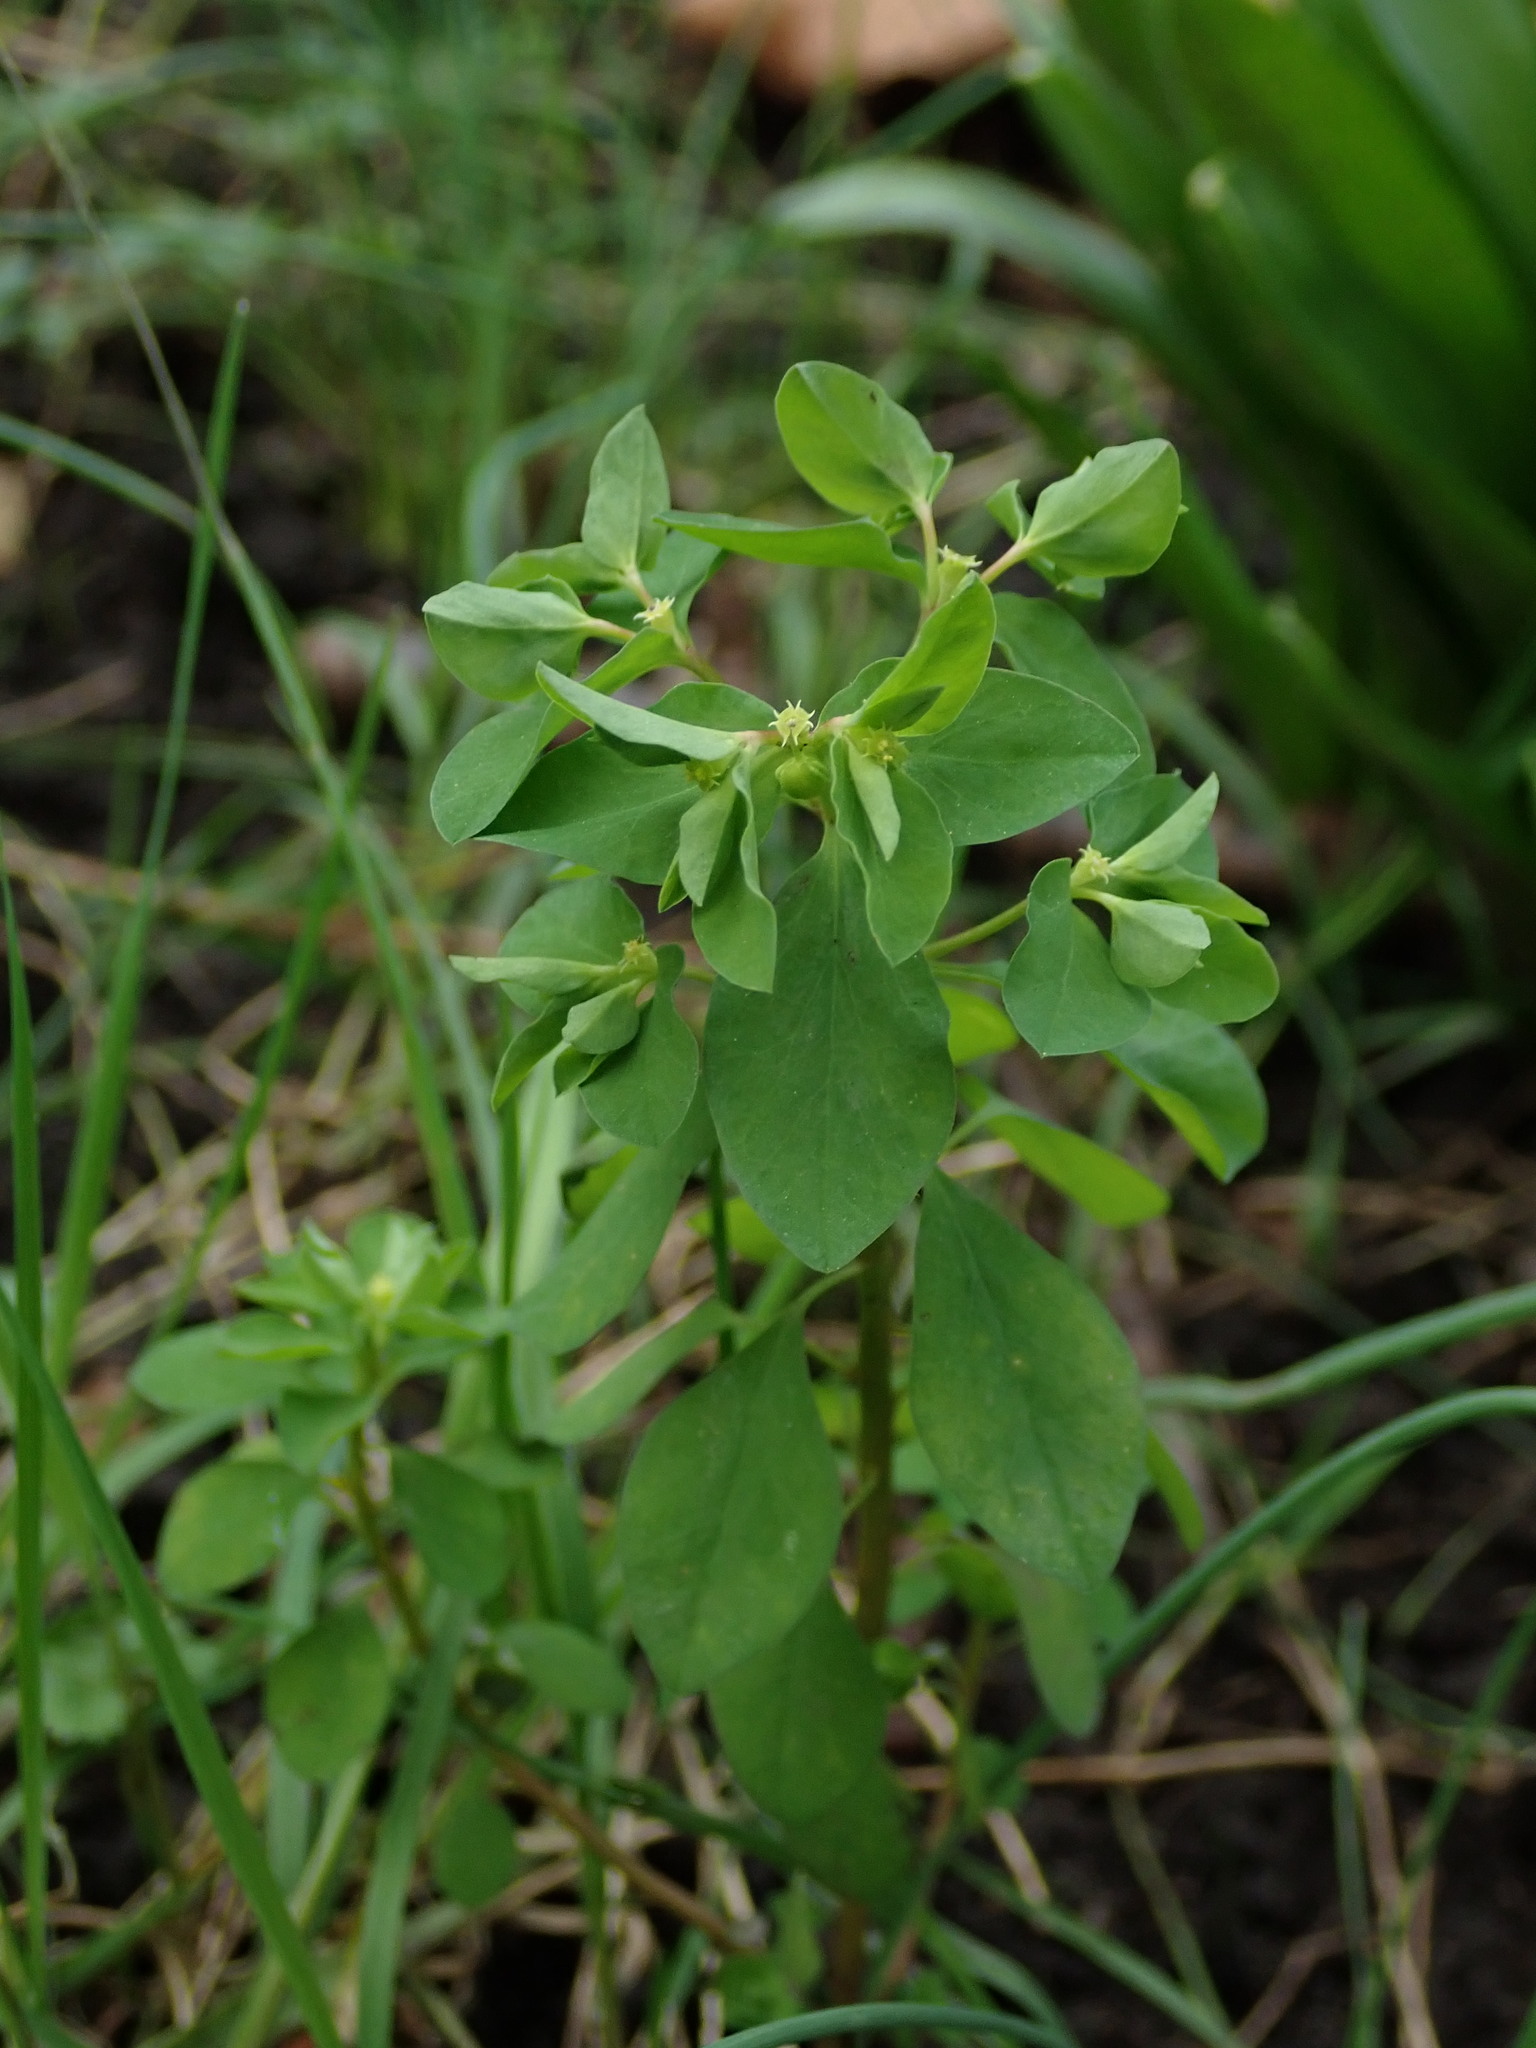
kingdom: Plantae
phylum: Tracheophyta
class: Magnoliopsida
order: Malpighiales
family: Euphorbiaceae
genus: Euphorbia
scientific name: Euphorbia peplus
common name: Petty spurge
